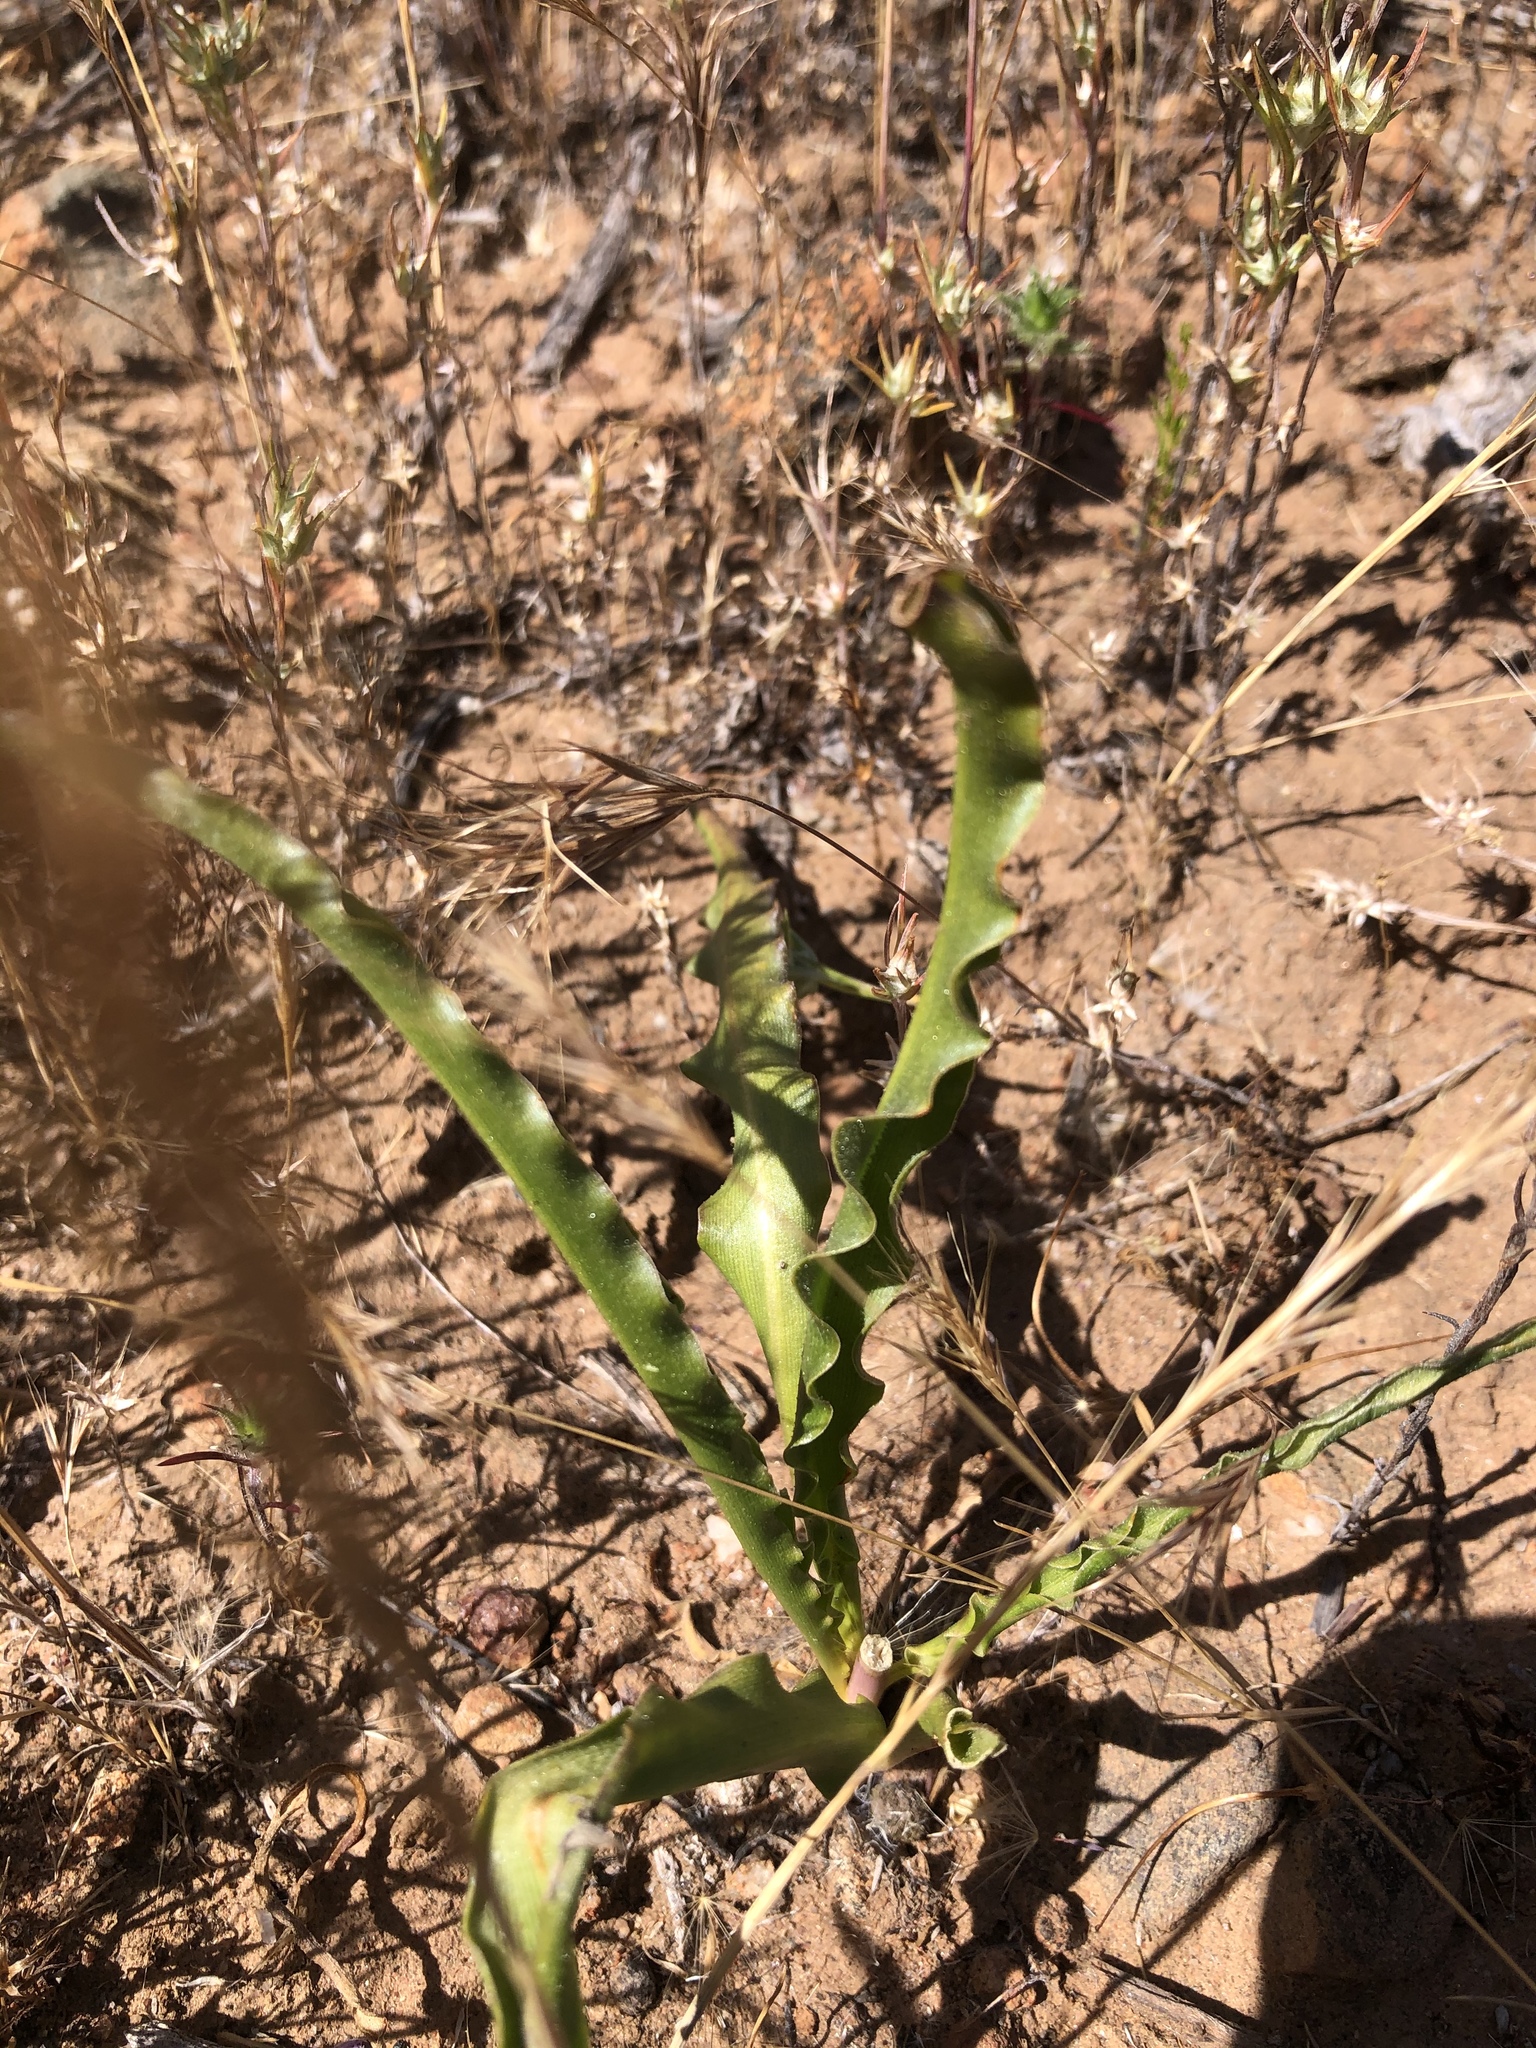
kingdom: Plantae
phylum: Tracheophyta
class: Liliopsida
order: Asparagales
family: Asparagaceae
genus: Hooveria
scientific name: Hooveria parviflora
